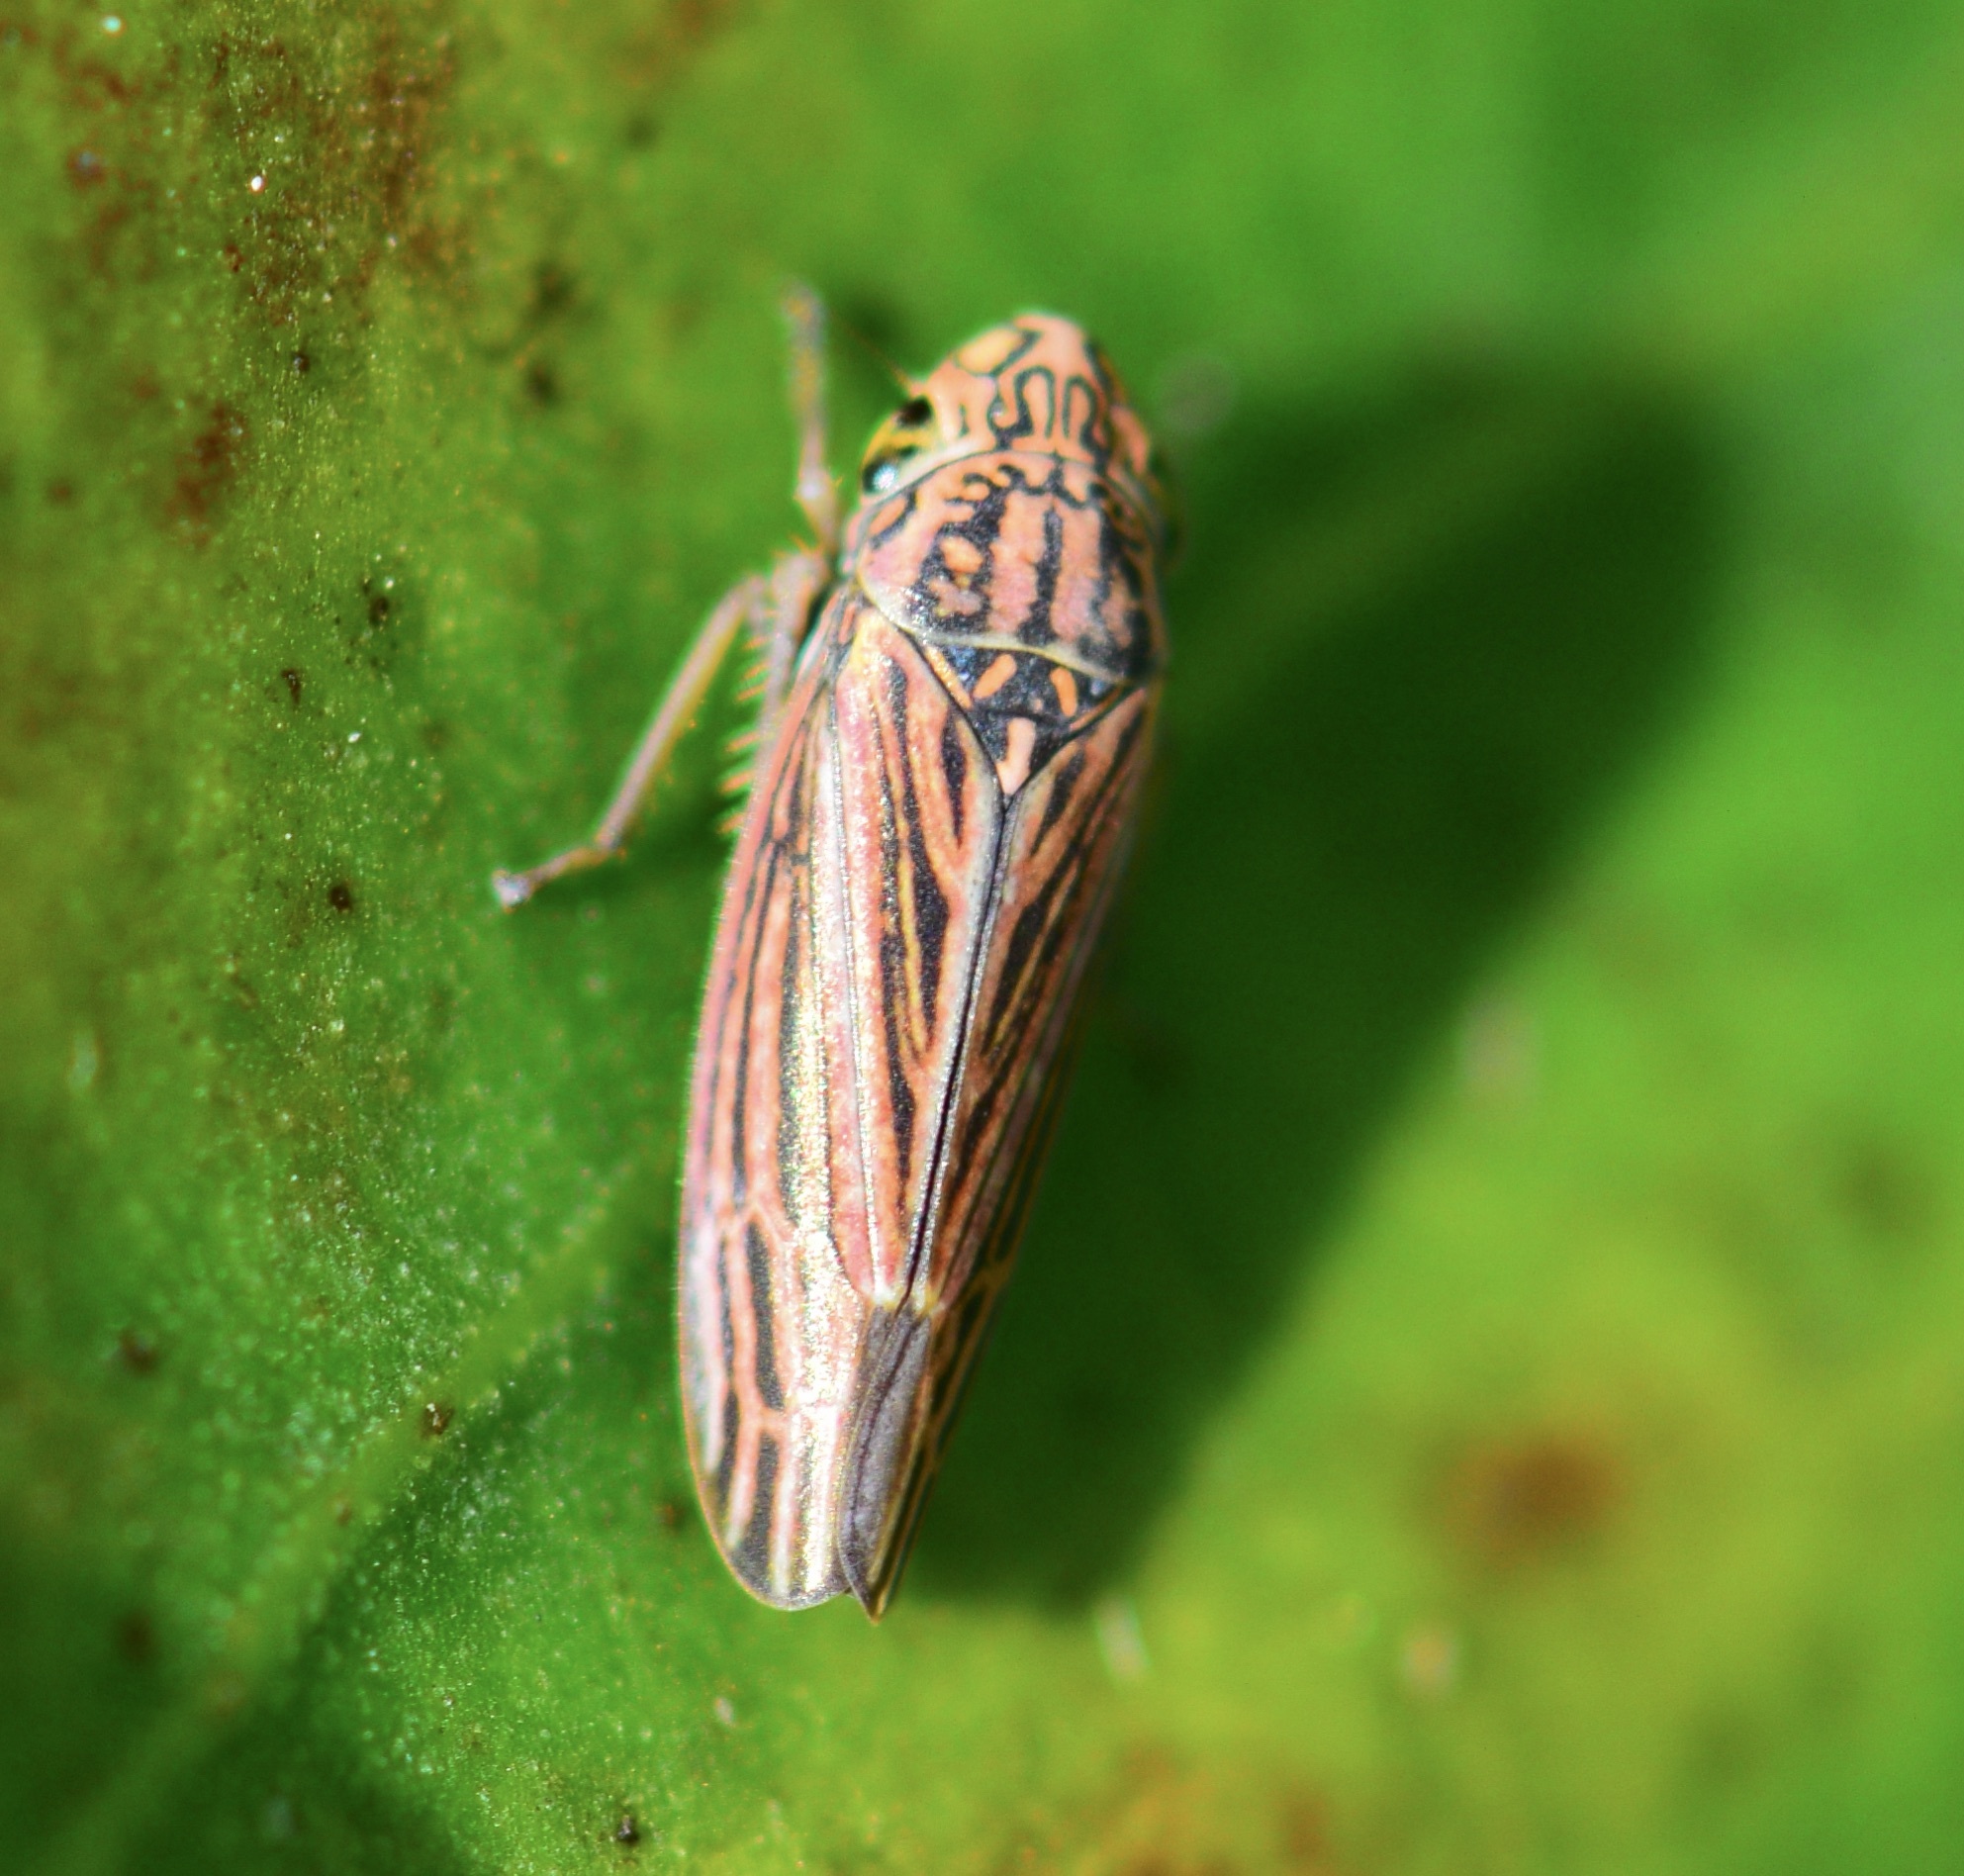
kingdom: Animalia
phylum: Arthropoda
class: Insecta
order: Hemiptera
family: Cicadellidae
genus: Neokolla
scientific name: Neokolla hieroglyphica
